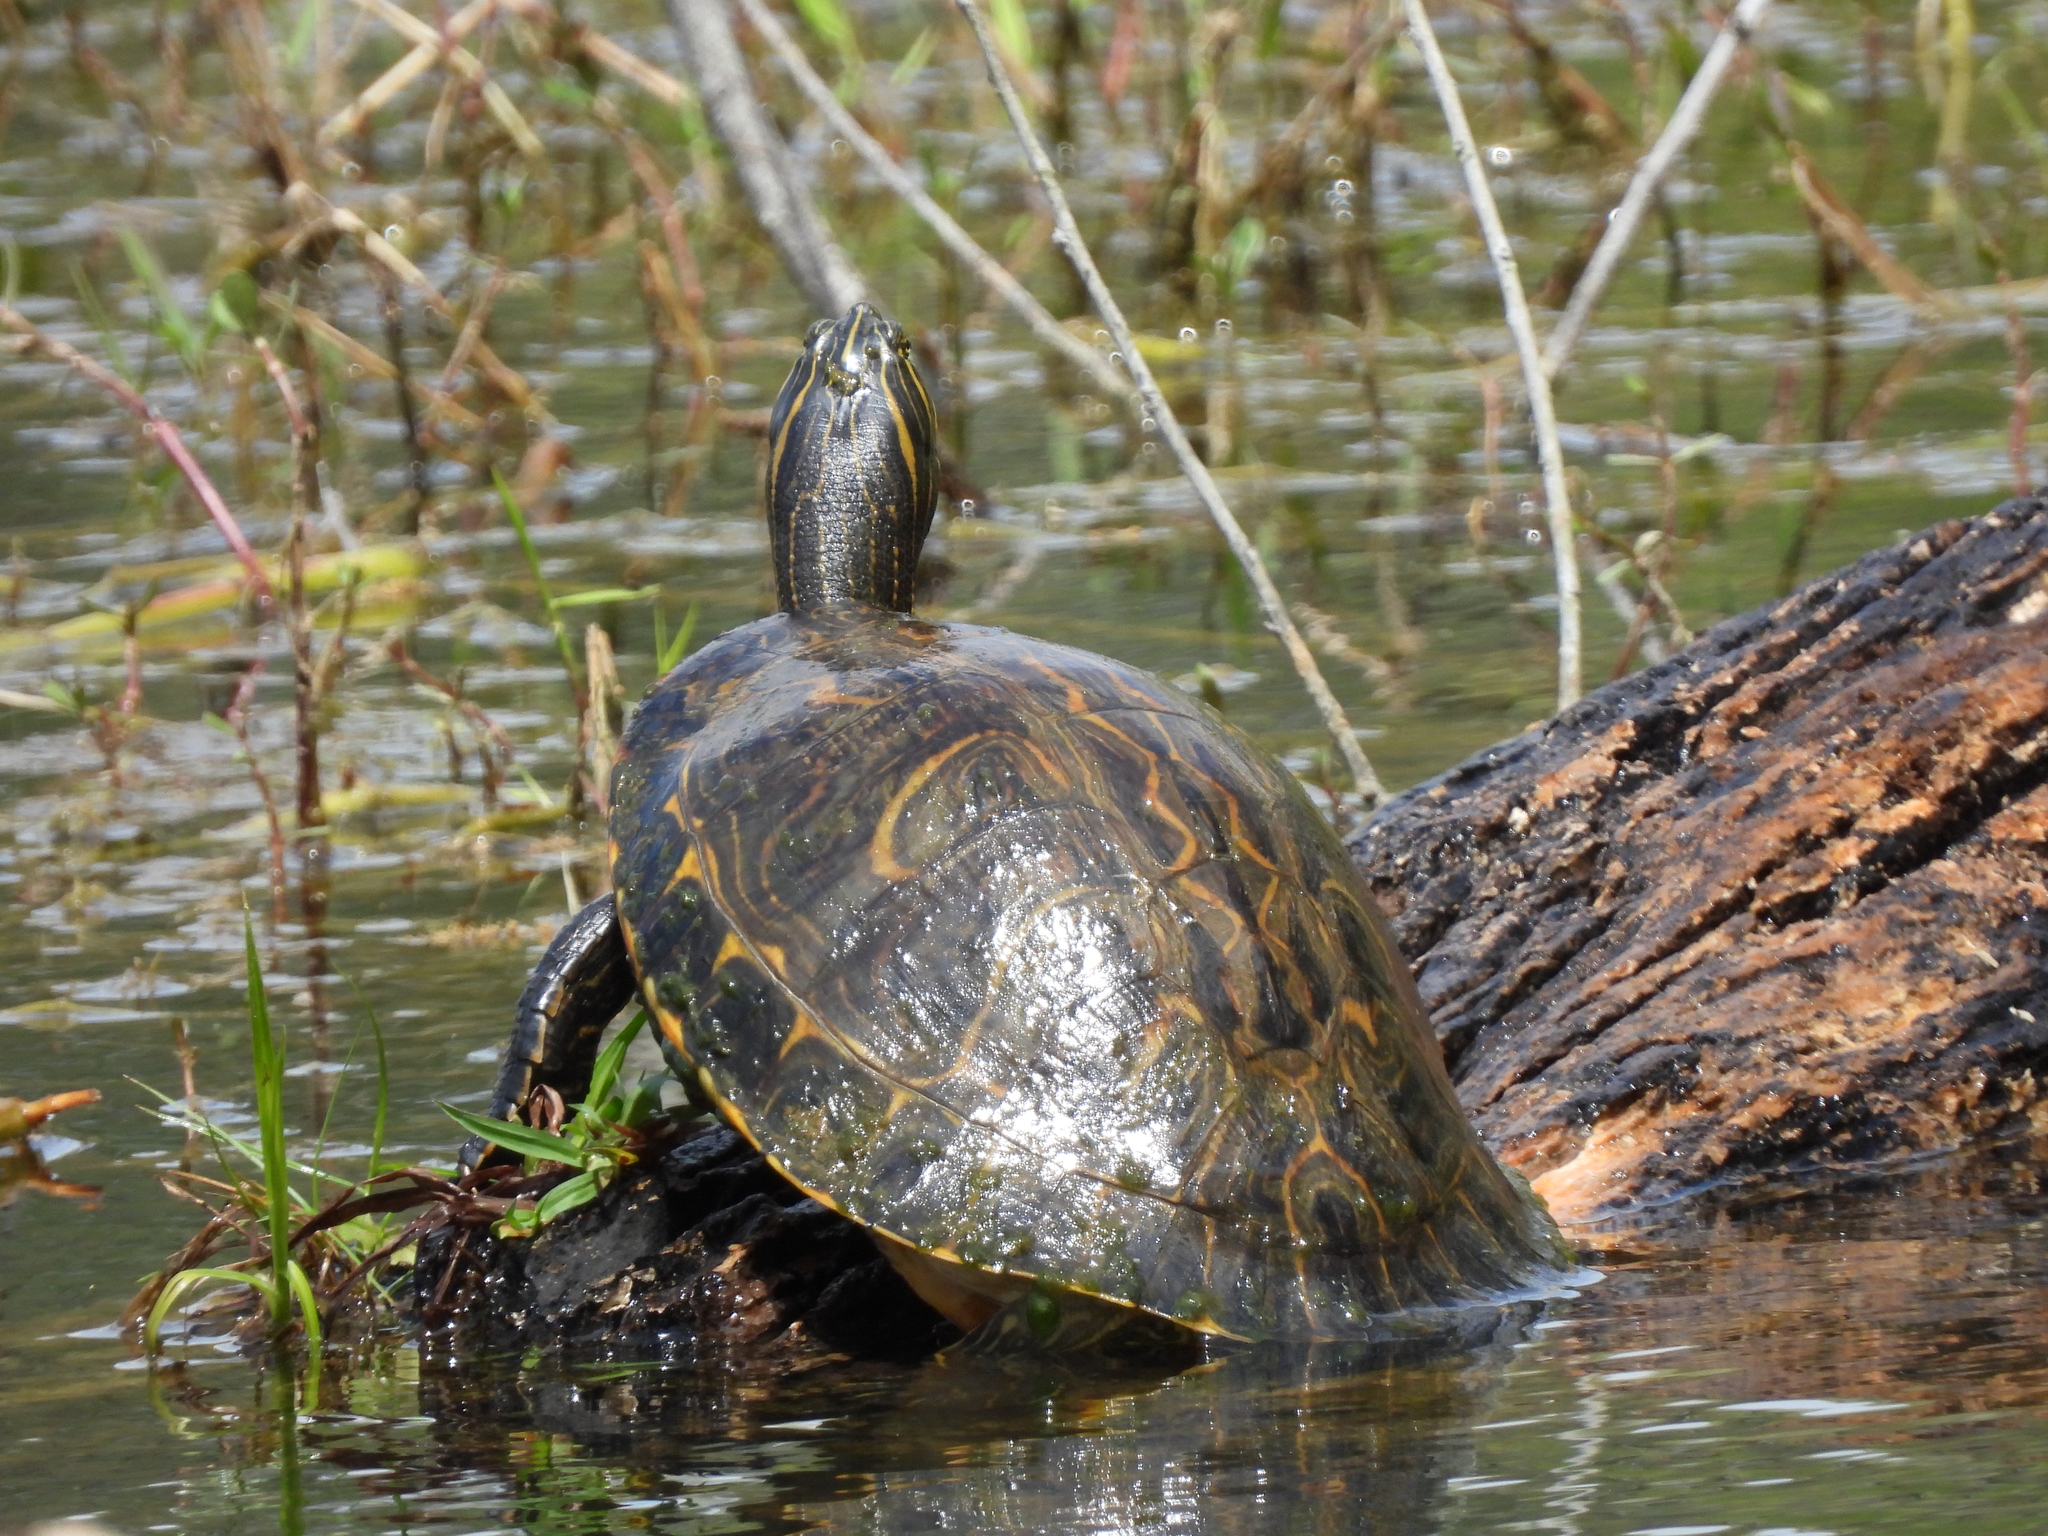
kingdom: Animalia
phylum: Chordata
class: Testudines
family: Emydidae
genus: Pseudemys
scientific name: Pseudemys concinna
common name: Eastern river cooter
